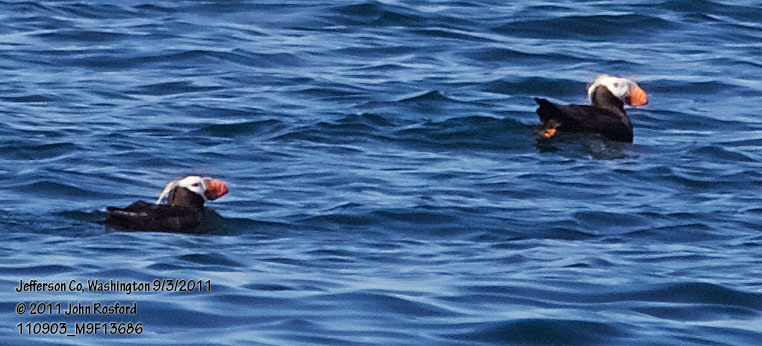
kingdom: Animalia
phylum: Chordata
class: Aves
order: Charadriiformes
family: Alcidae
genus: Fratercula
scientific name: Fratercula cirrhata
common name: Tufted puffin
